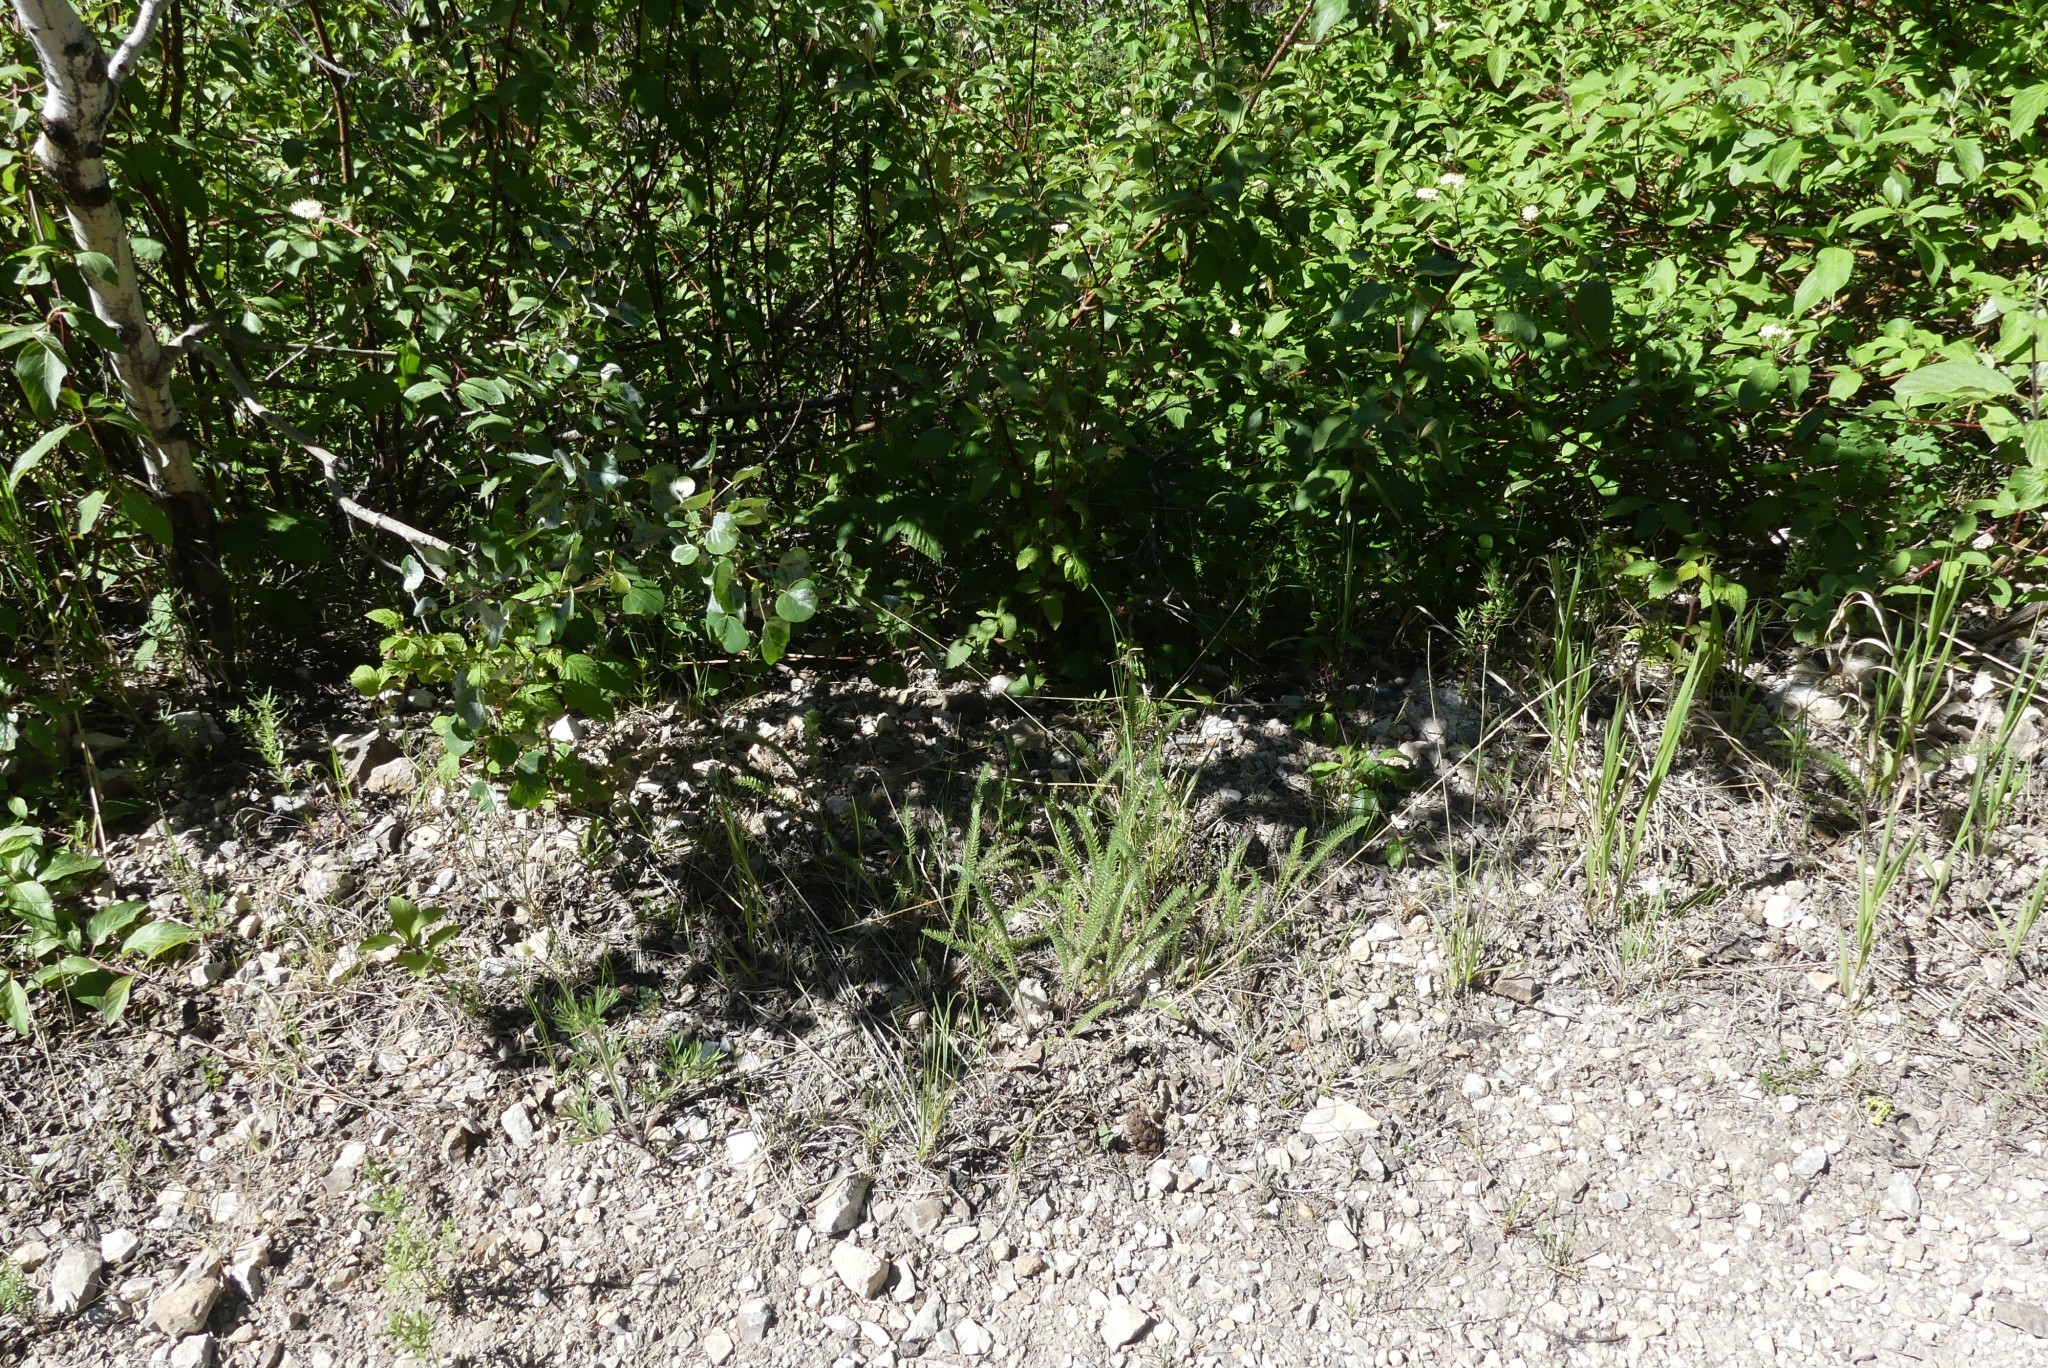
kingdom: Plantae
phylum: Tracheophyta
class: Magnoliopsida
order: Asterales
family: Asteraceae
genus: Achillea
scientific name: Achillea millefolium
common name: Yarrow
